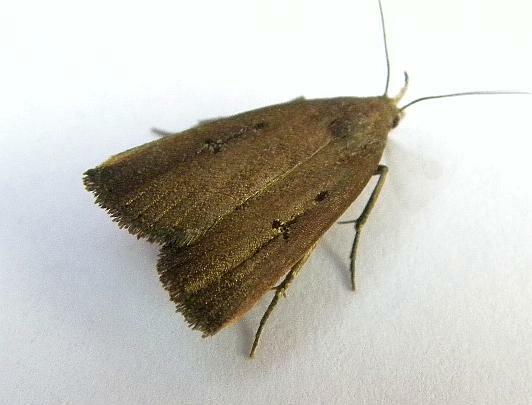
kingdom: Animalia
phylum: Arthropoda
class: Insecta
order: Lepidoptera
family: Erebidae
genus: Macrochilo
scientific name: Macrochilo orciferalis
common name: Bronzy owlet
